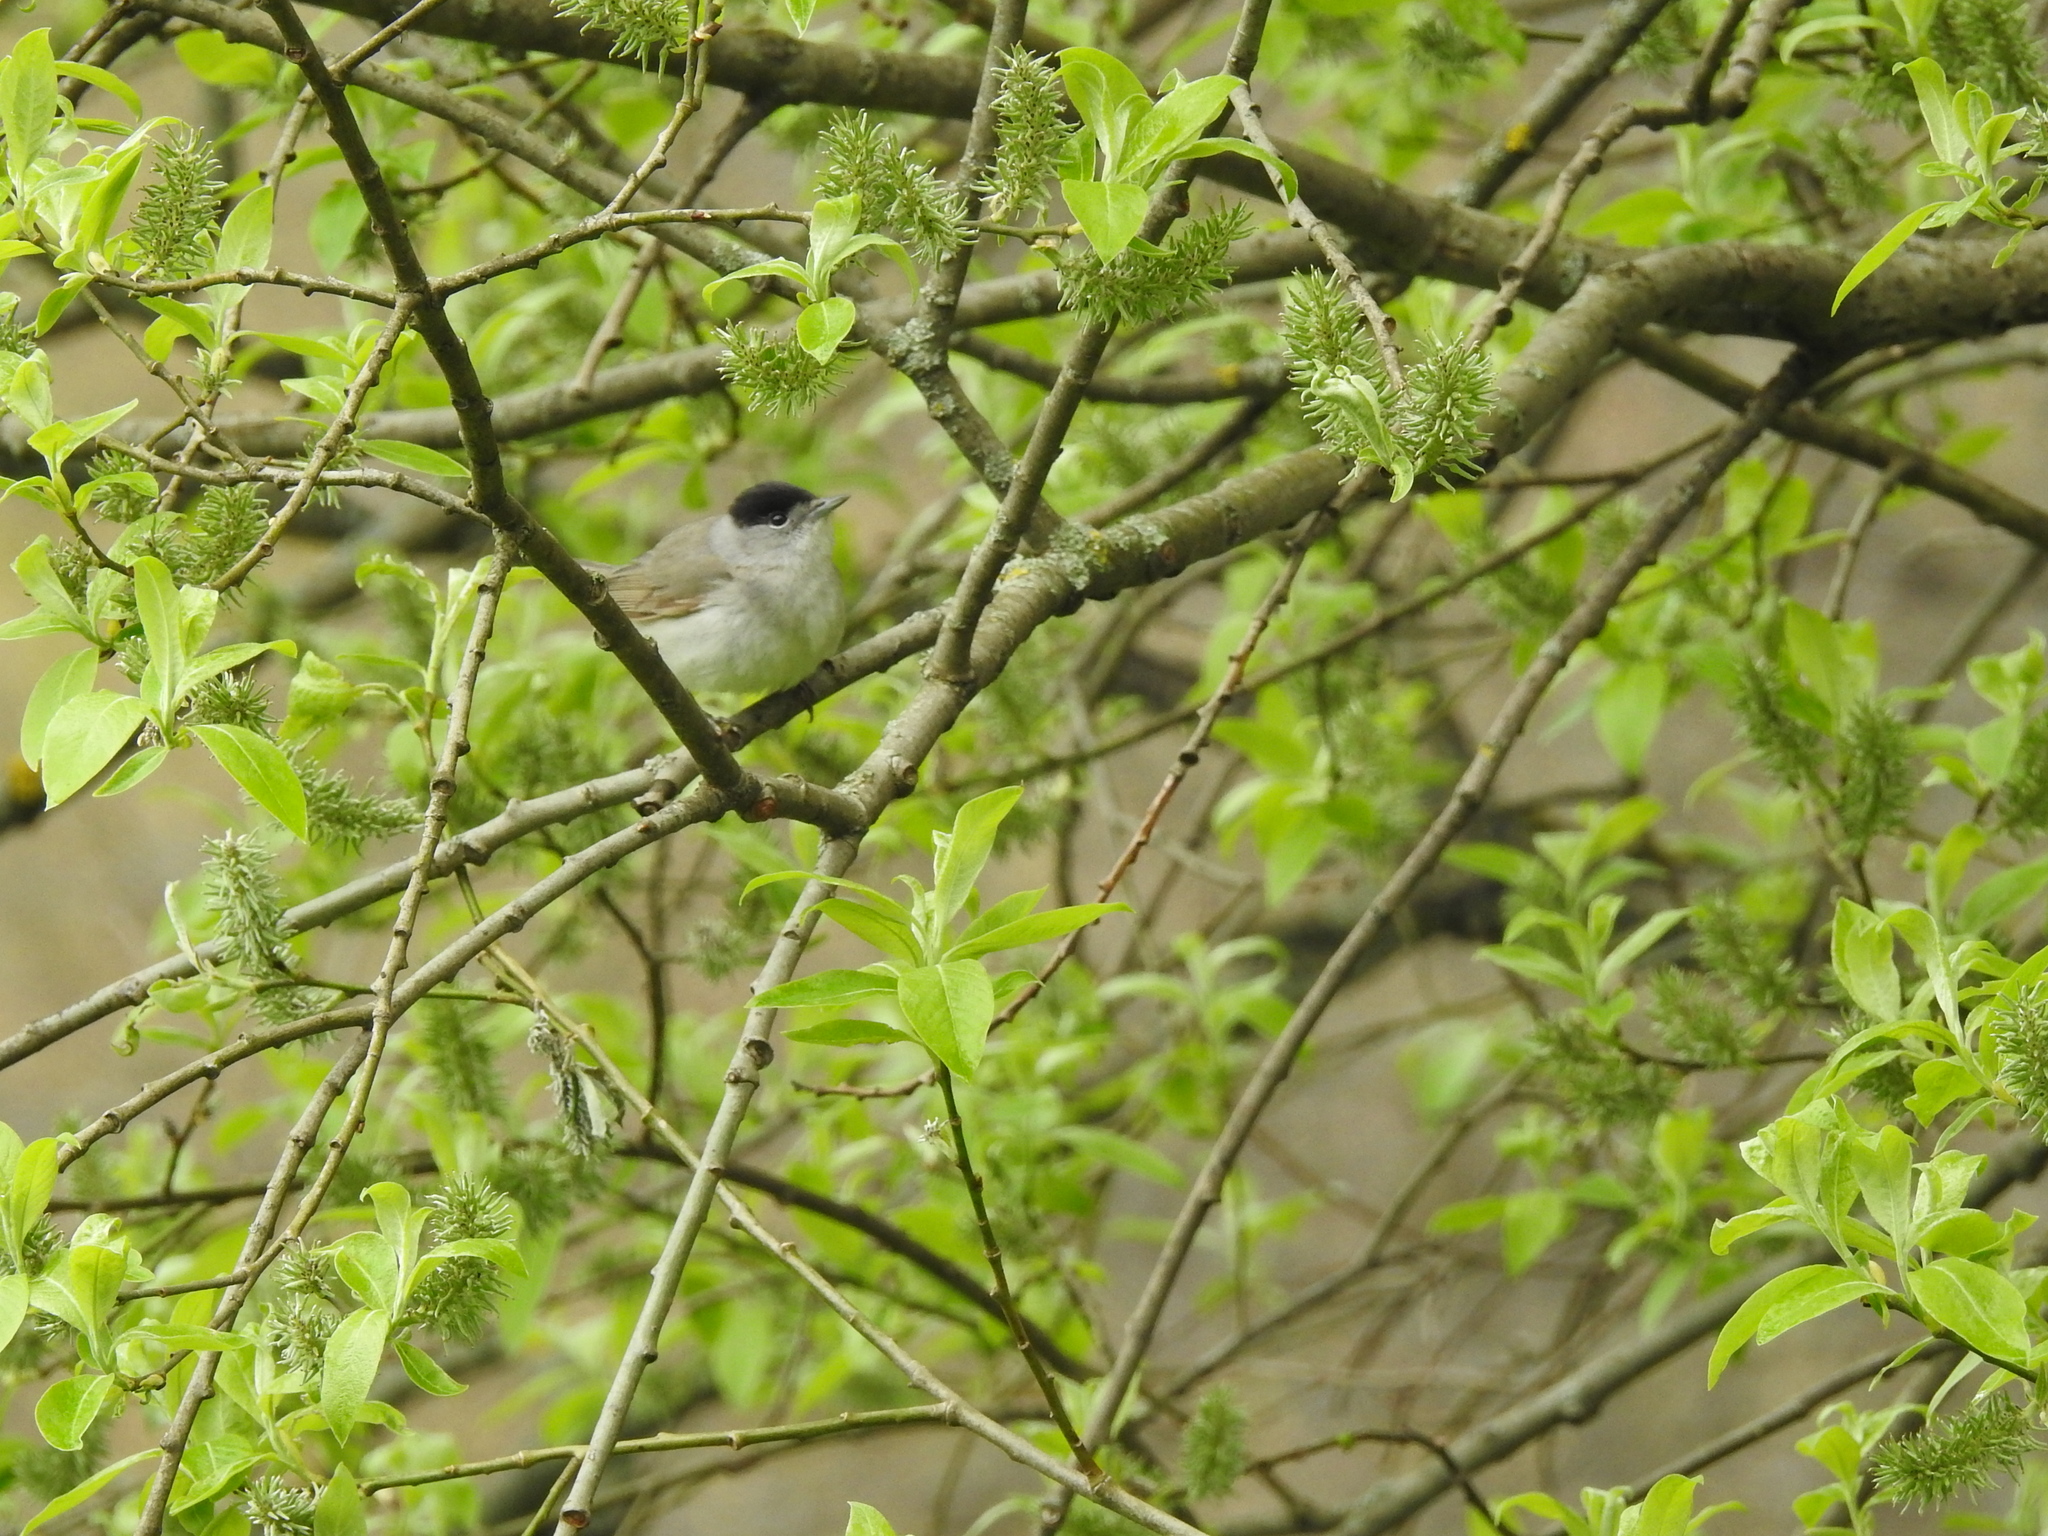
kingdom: Animalia
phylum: Chordata
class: Aves
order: Passeriformes
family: Sylviidae
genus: Sylvia
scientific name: Sylvia atricapilla
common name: Eurasian blackcap
